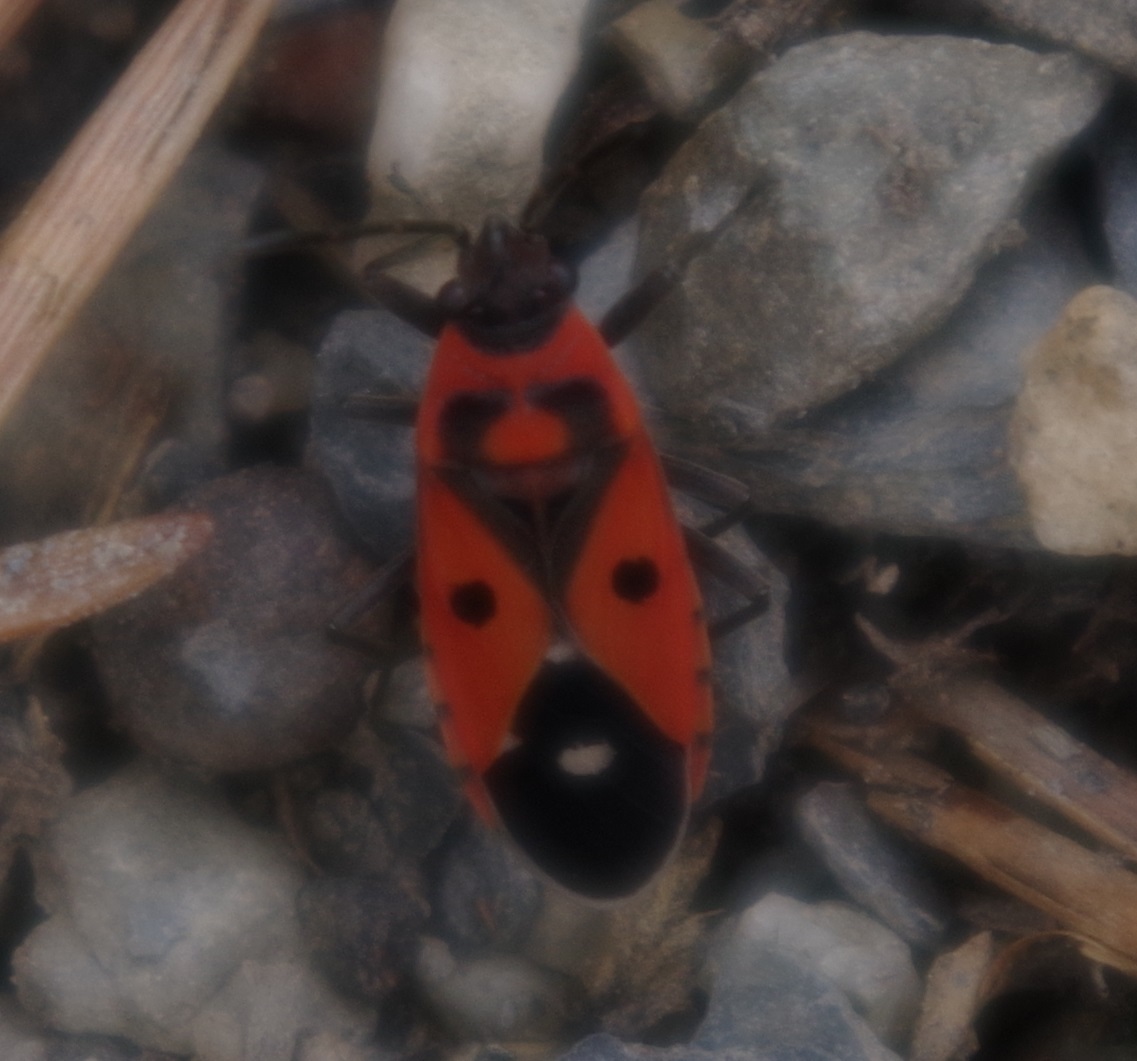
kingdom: Animalia
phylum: Arthropoda
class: Insecta
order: Hemiptera
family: Lygaeidae
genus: Melanocoryphus
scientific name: Melanocoryphus albomaculatus
